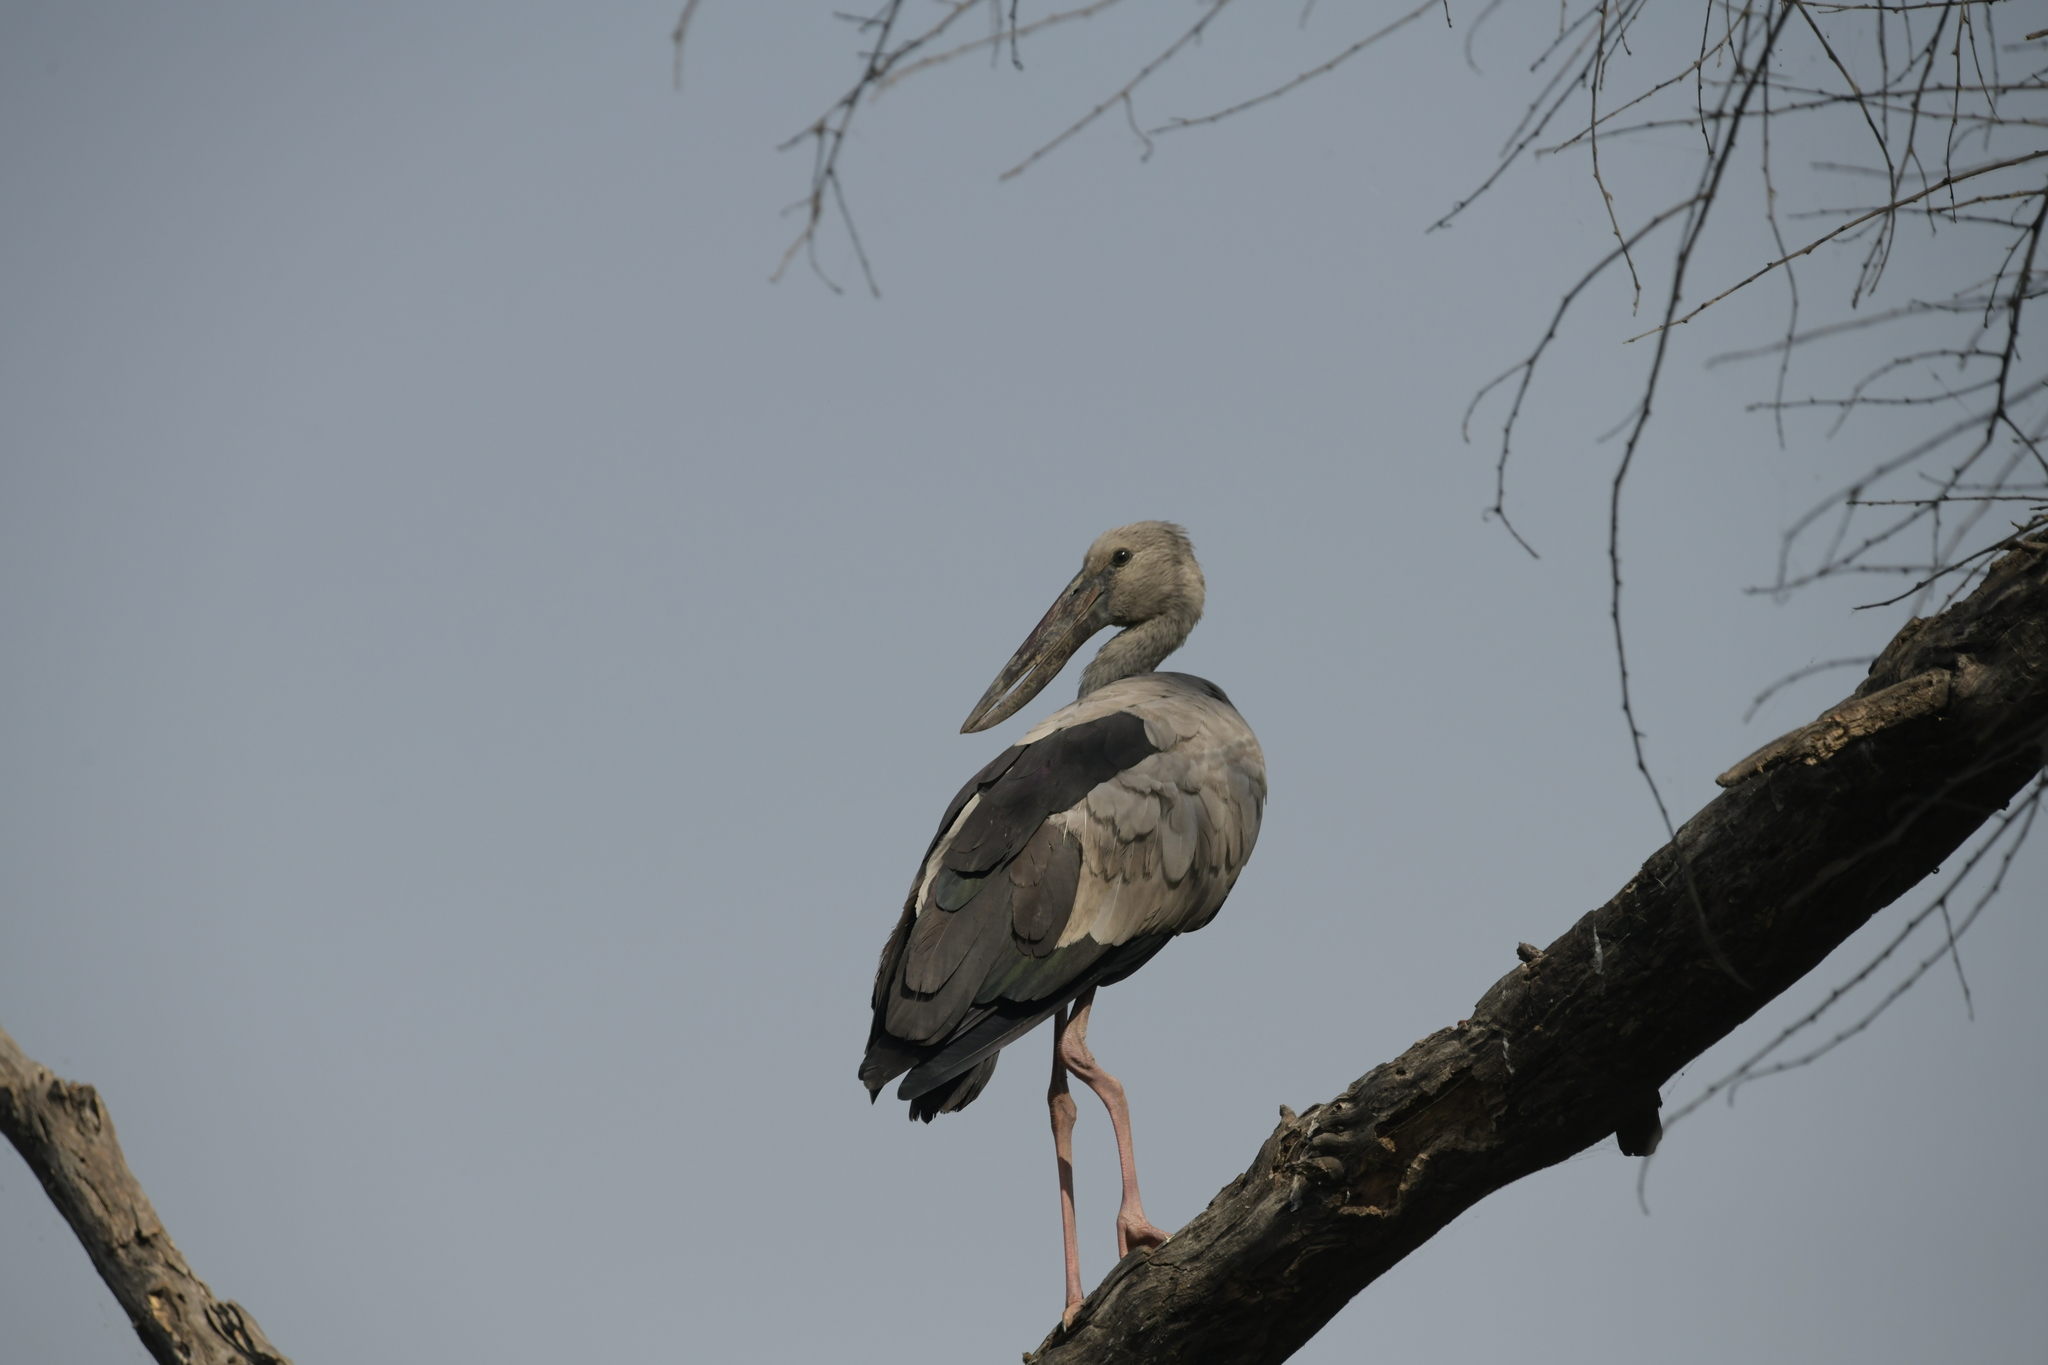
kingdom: Animalia
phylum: Chordata
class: Aves
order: Ciconiiformes
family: Ciconiidae
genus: Anastomus
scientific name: Anastomus oscitans
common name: Asian openbill
